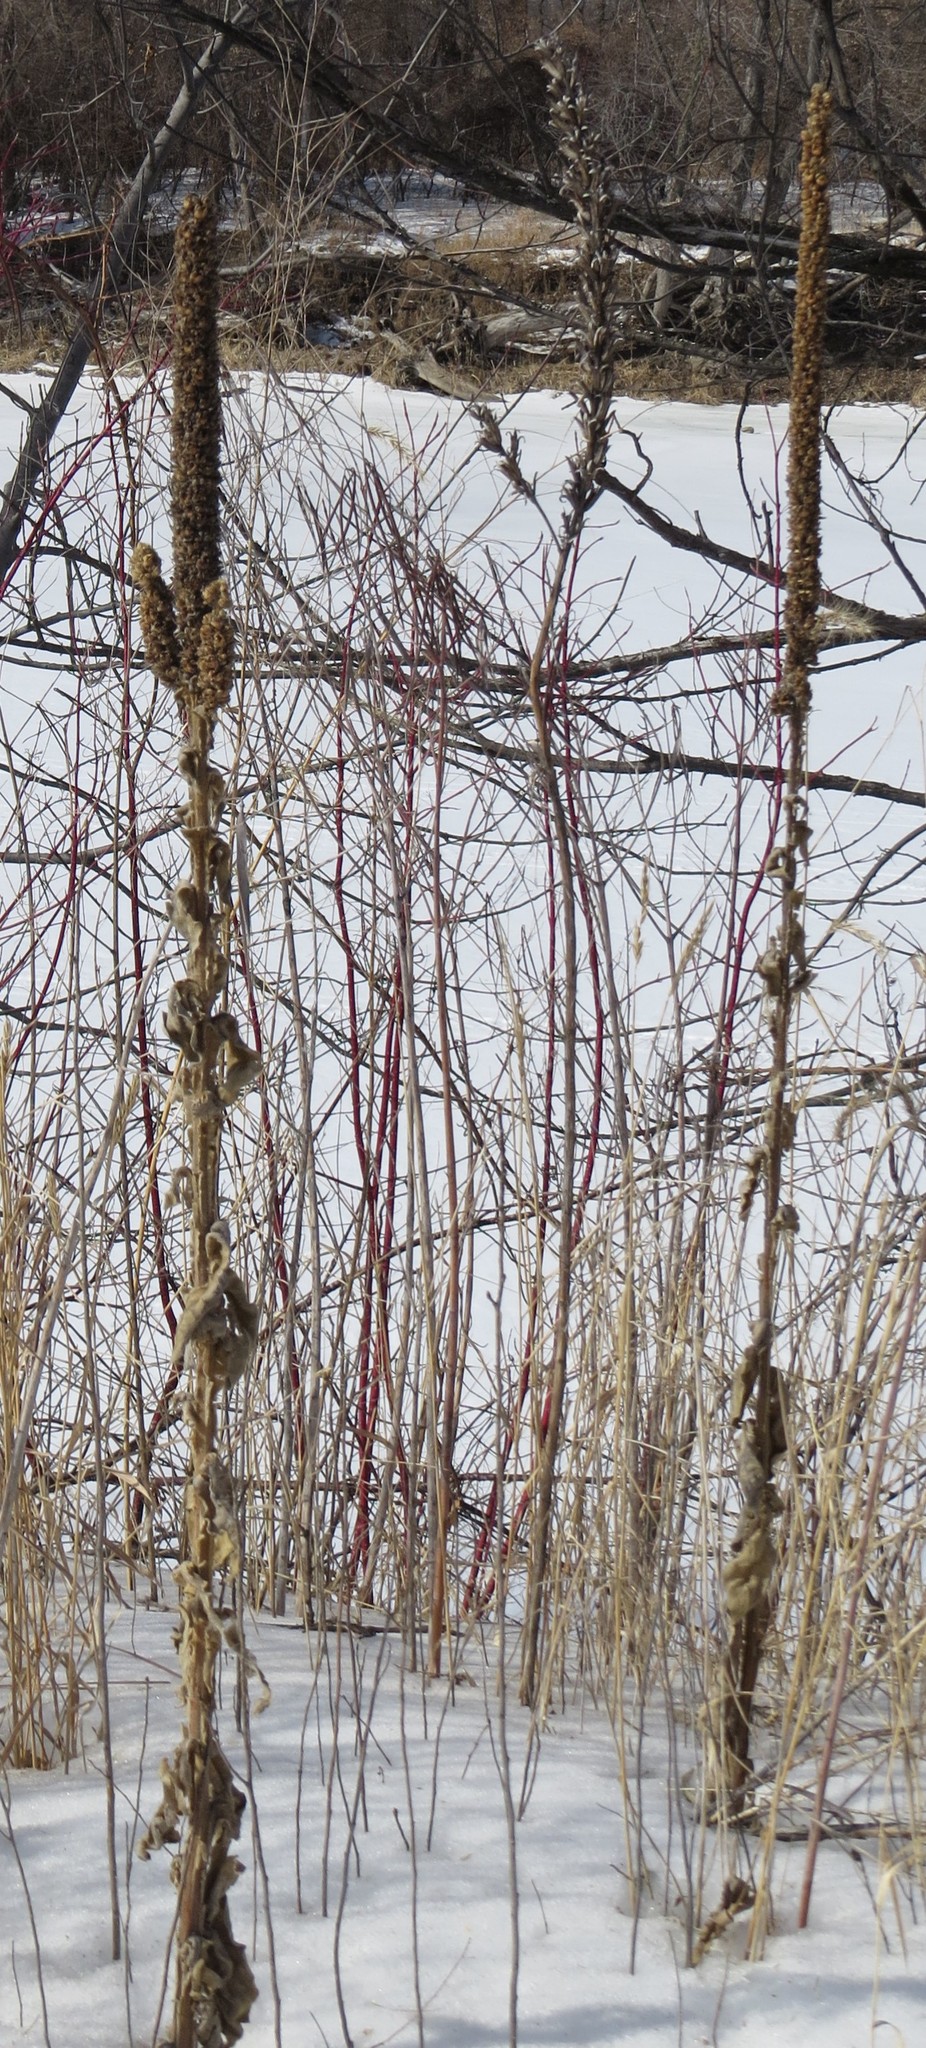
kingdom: Plantae
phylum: Tracheophyta
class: Magnoliopsida
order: Lamiales
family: Scrophulariaceae
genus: Verbascum
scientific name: Verbascum thapsus
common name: Common mullein
